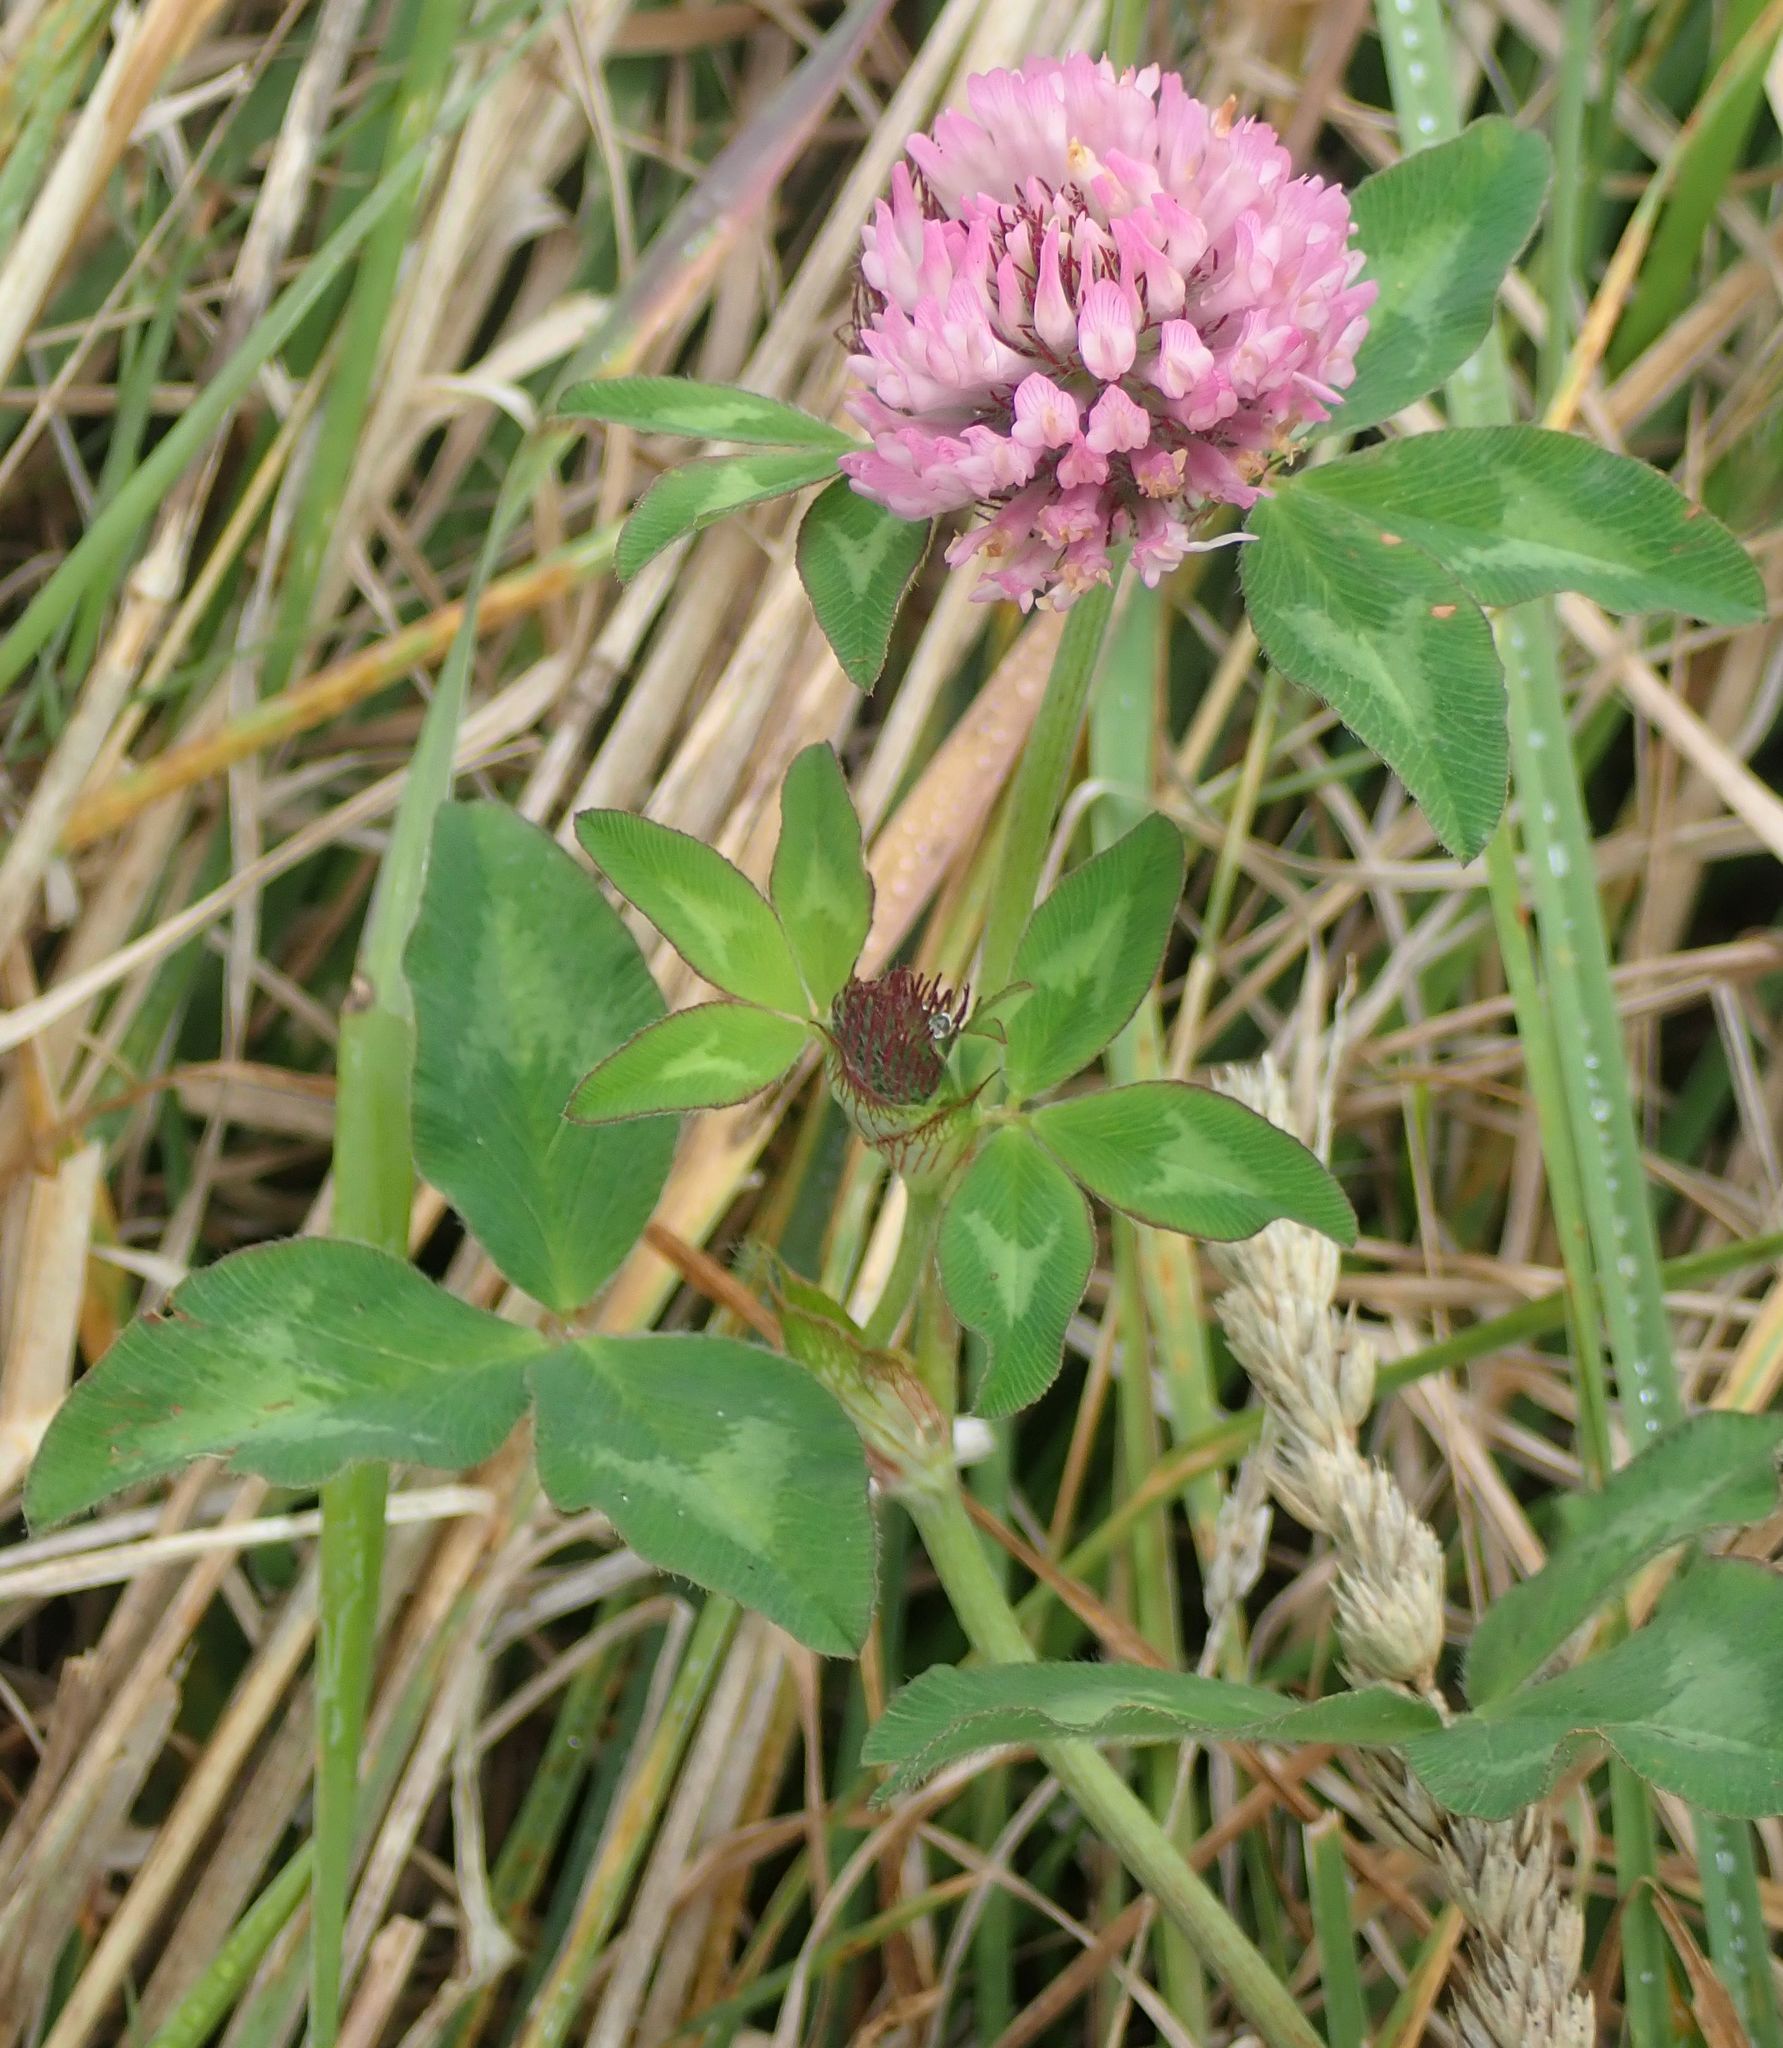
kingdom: Plantae
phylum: Tracheophyta
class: Magnoliopsida
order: Fabales
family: Fabaceae
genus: Trifolium
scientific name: Trifolium pratense
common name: Red clover
